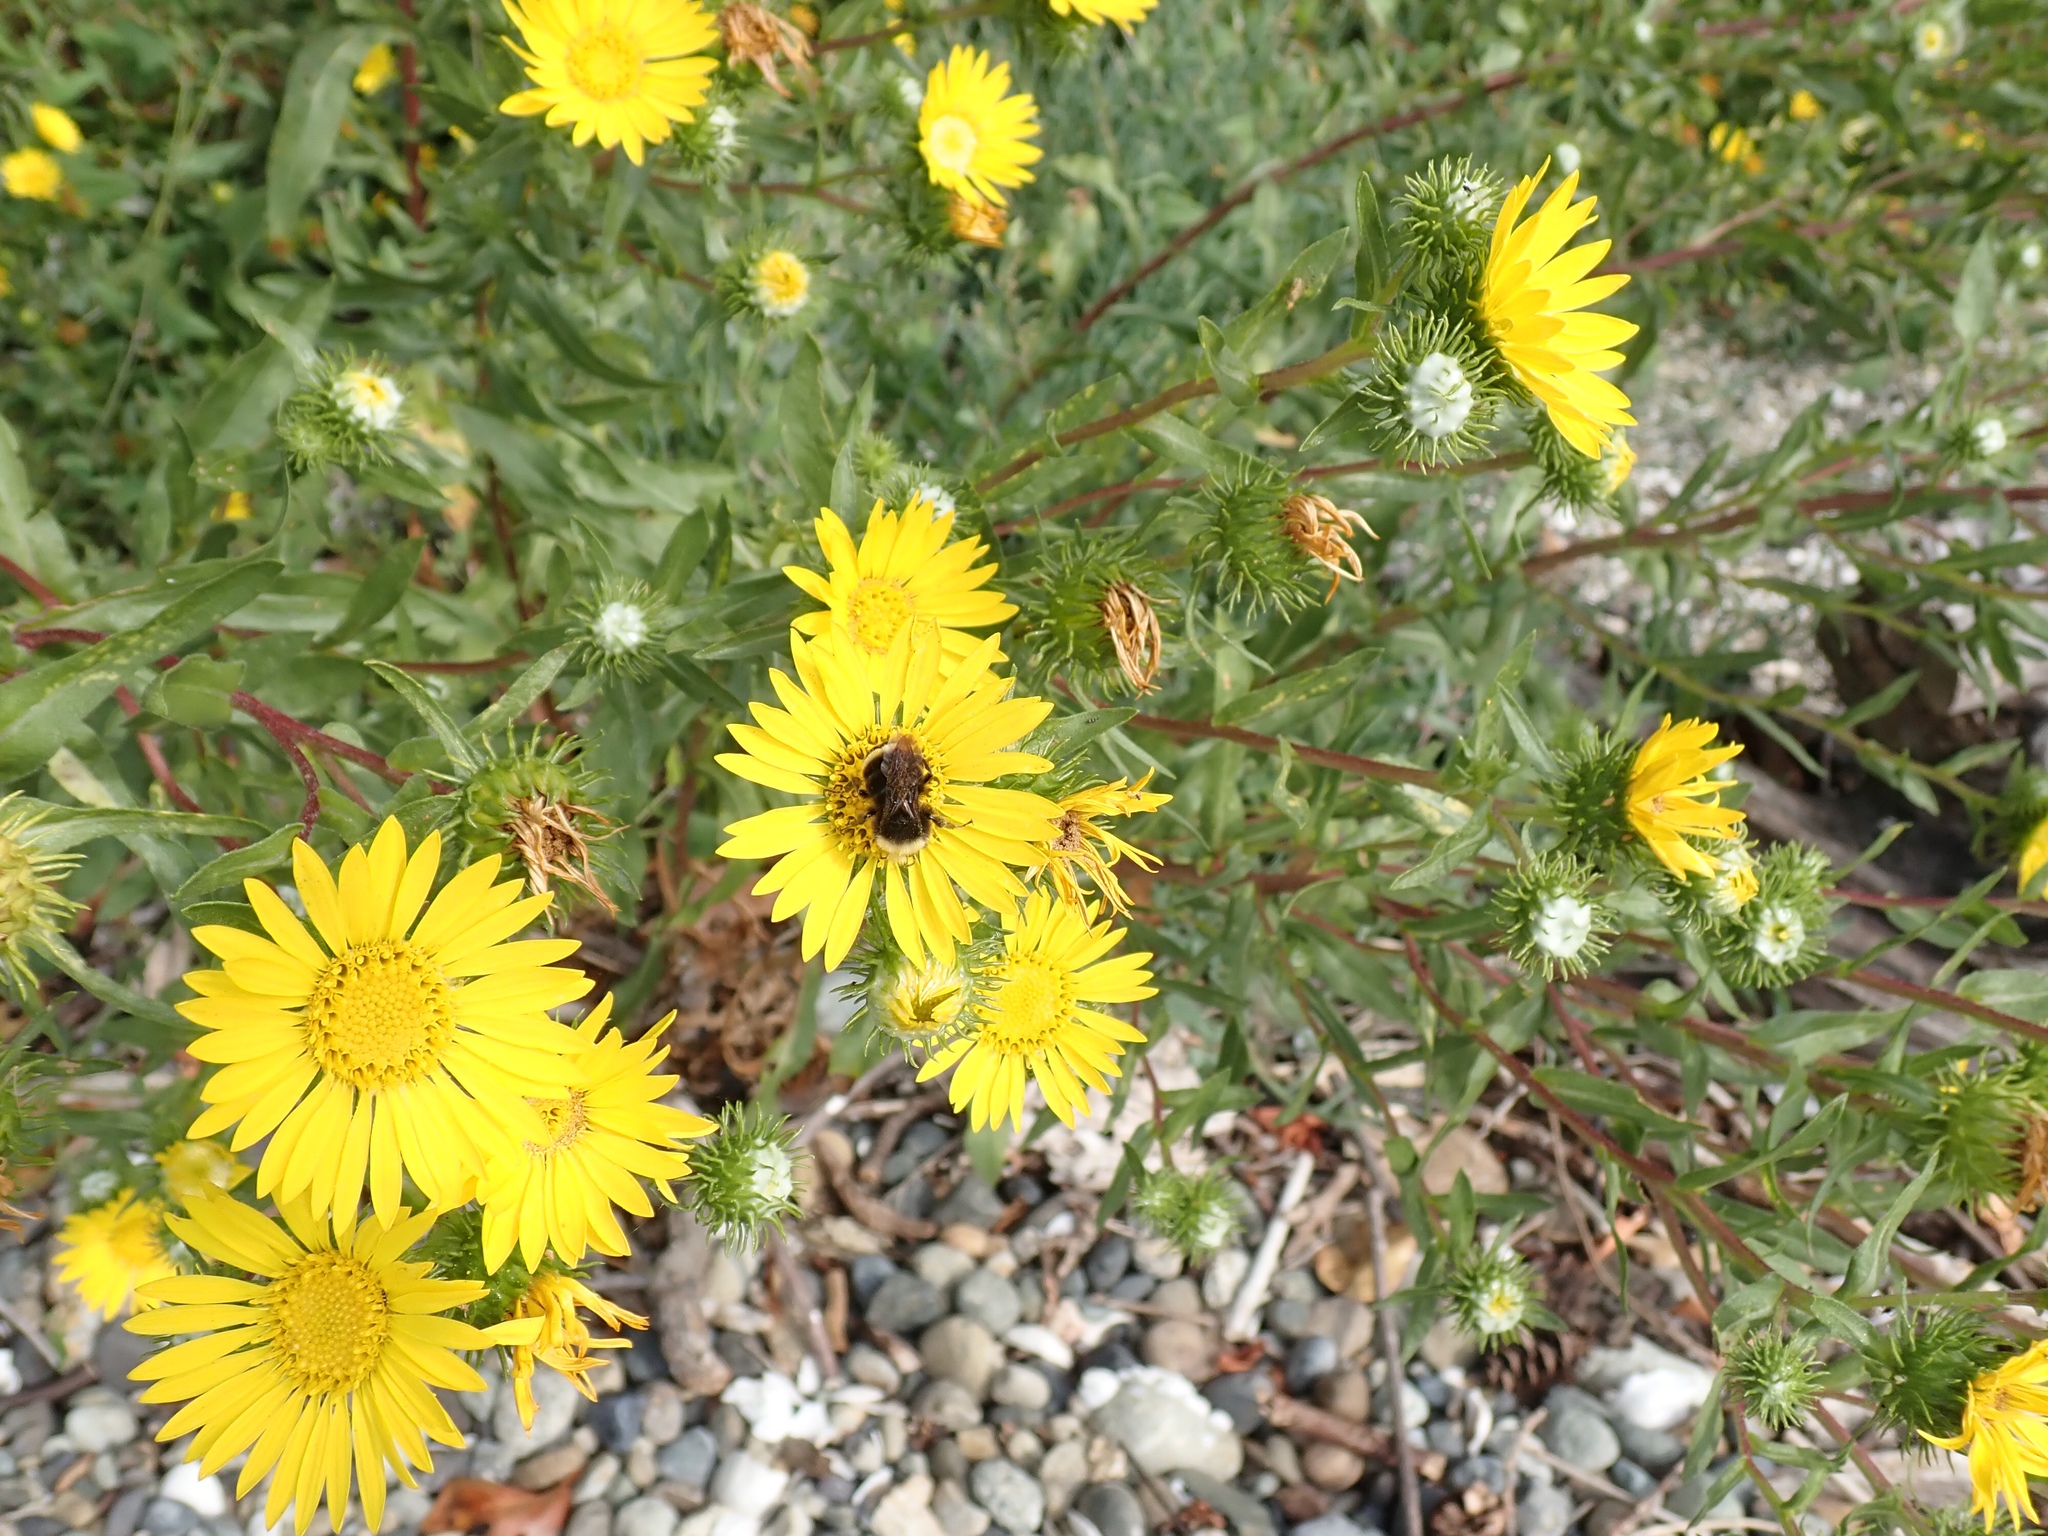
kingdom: Plantae
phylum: Tracheophyta
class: Magnoliopsida
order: Asterales
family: Asteraceae
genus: Grindelia
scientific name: Grindelia integrifolia
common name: Puget sound gumweed
